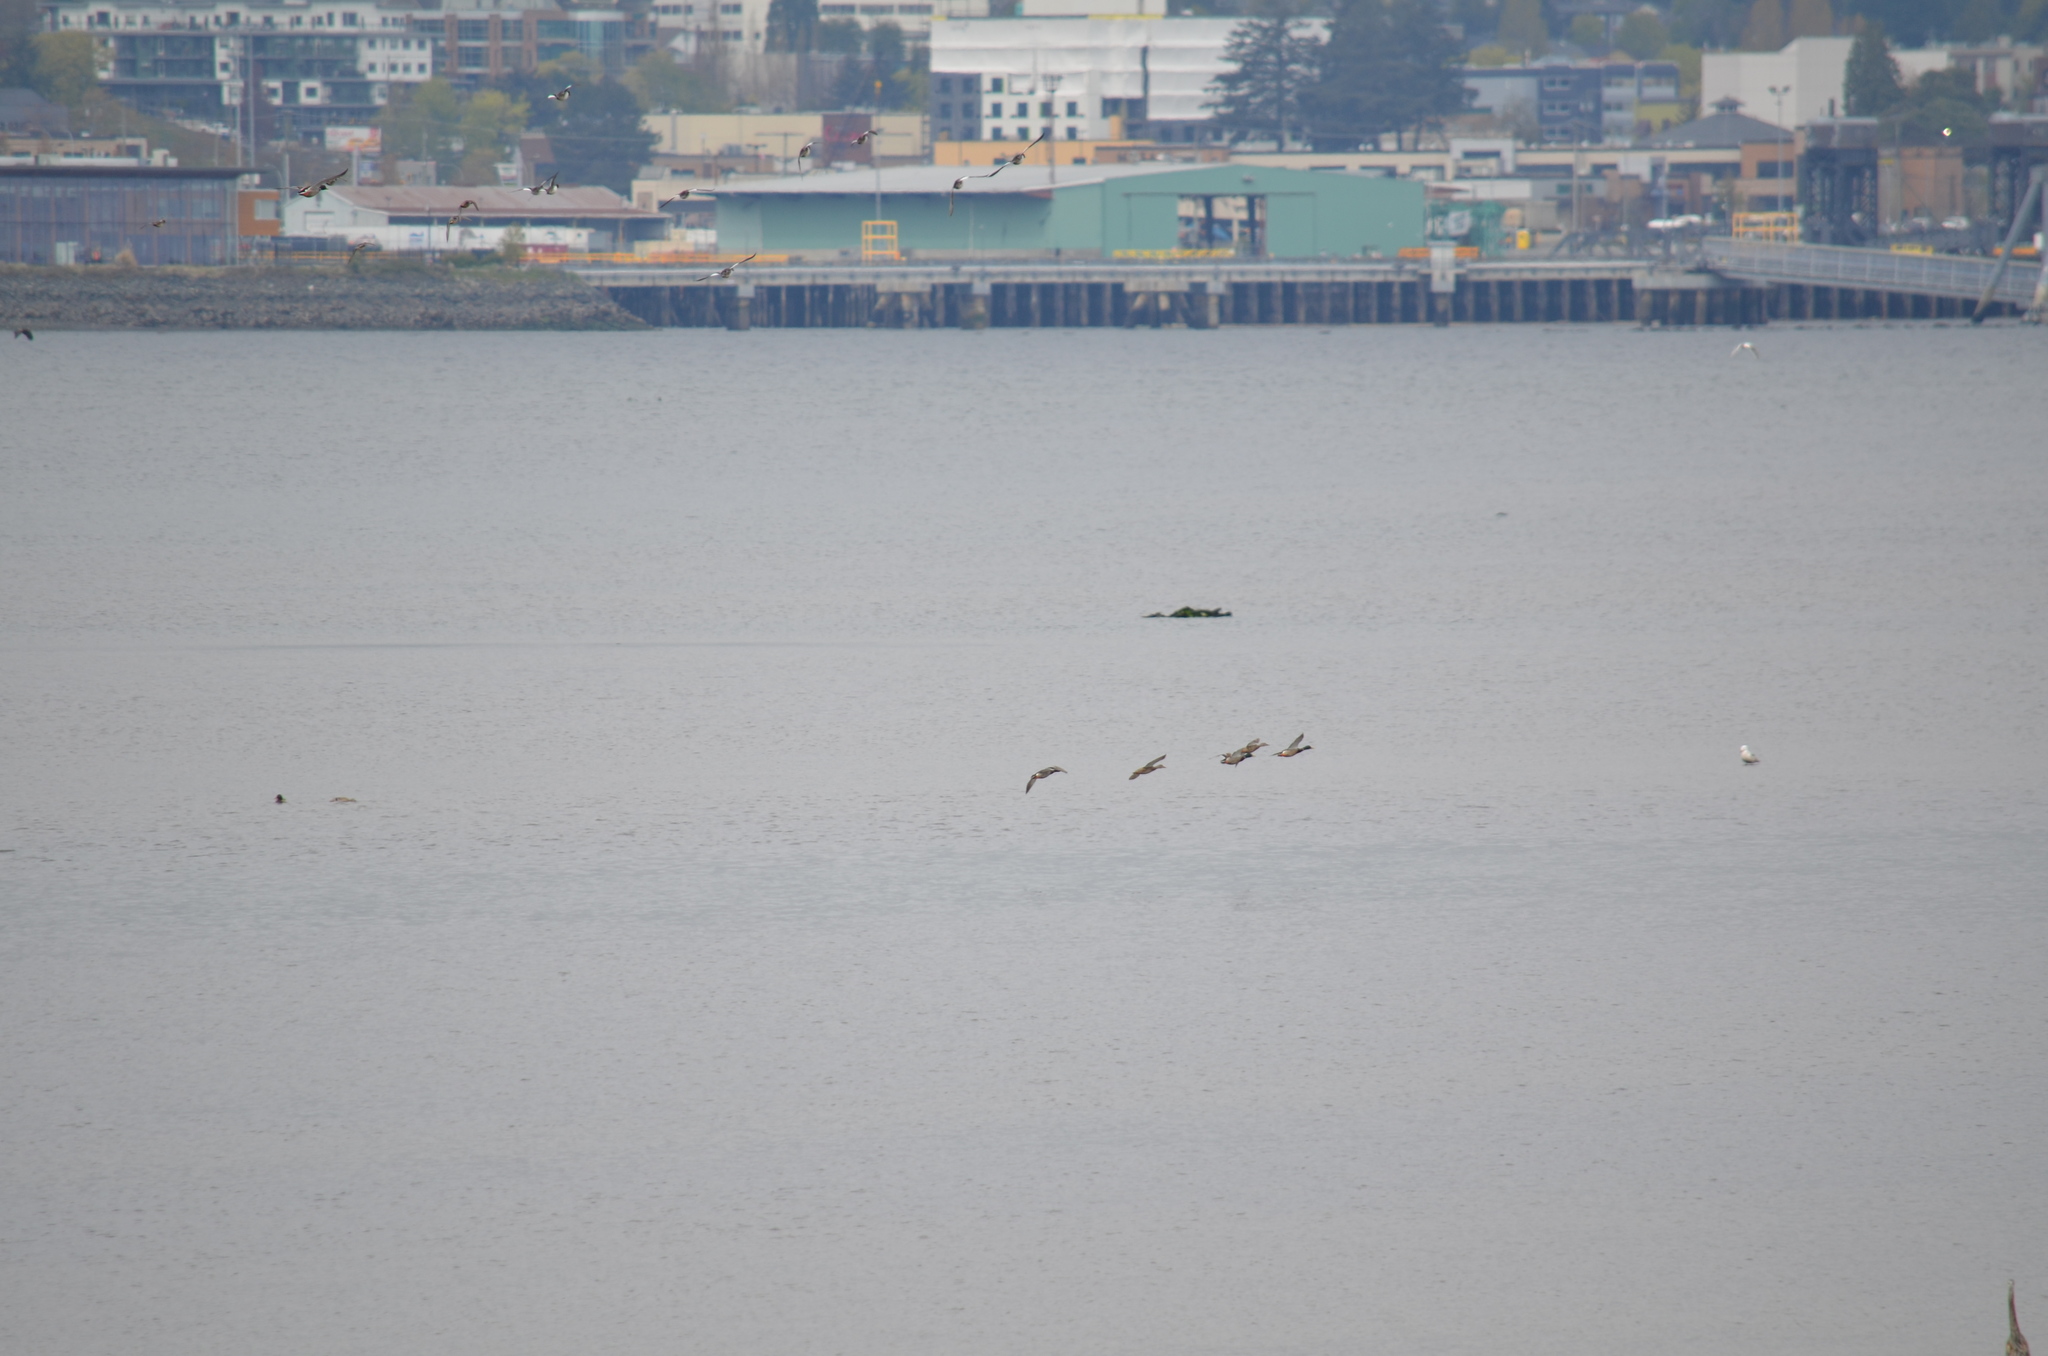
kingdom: Animalia
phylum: Chordata
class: Aves
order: Anseriformes
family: Anatidae
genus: Anas
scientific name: Anas platyrhynchos
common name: Mallard
